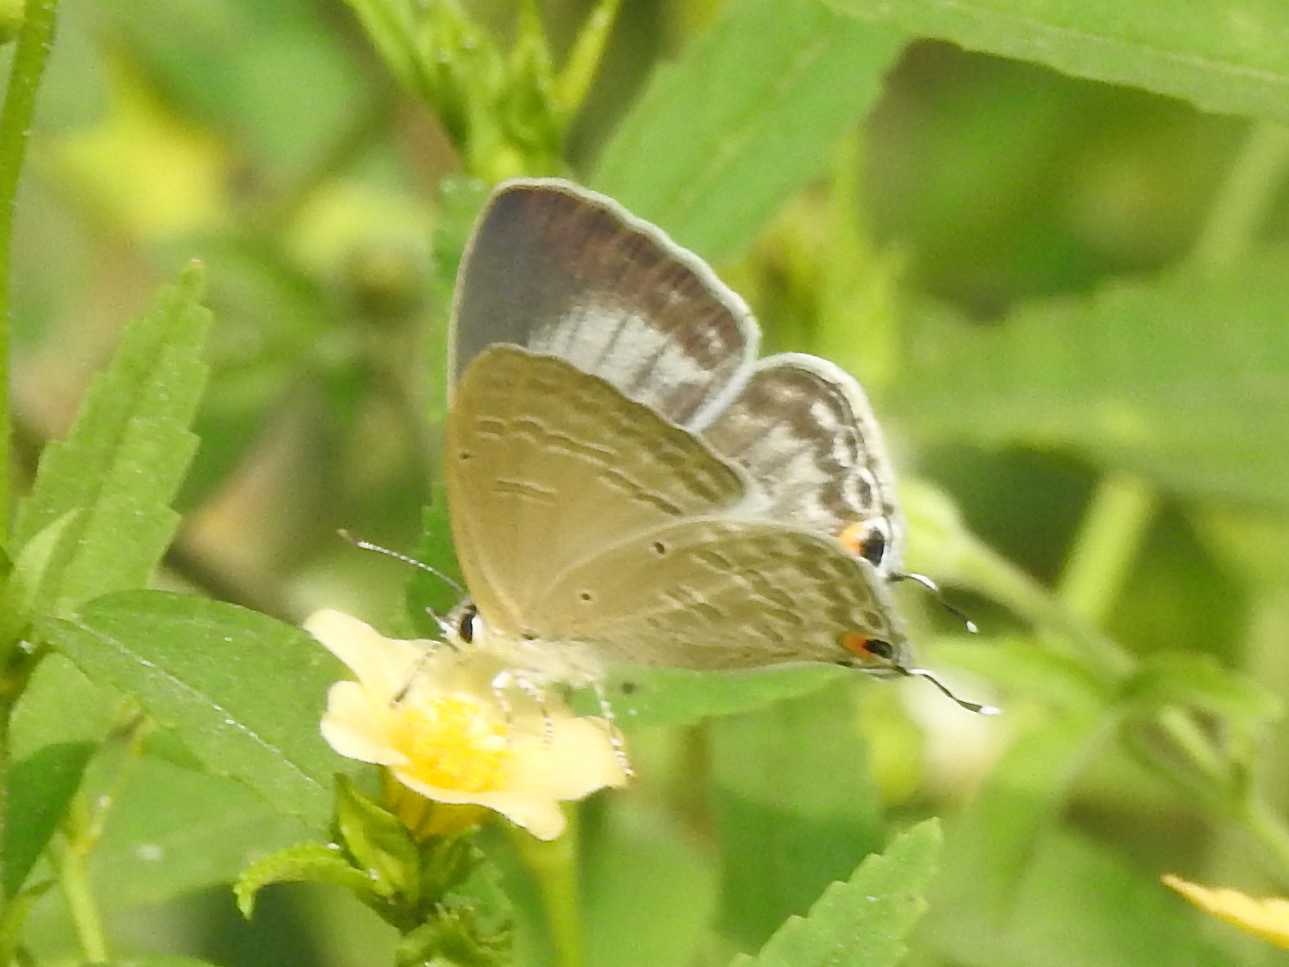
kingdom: Animalia
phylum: Arthropoda
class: Insecta
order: Lepidoptera
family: Lycaenidae
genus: Catochrysops
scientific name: Catochrysops strabo
